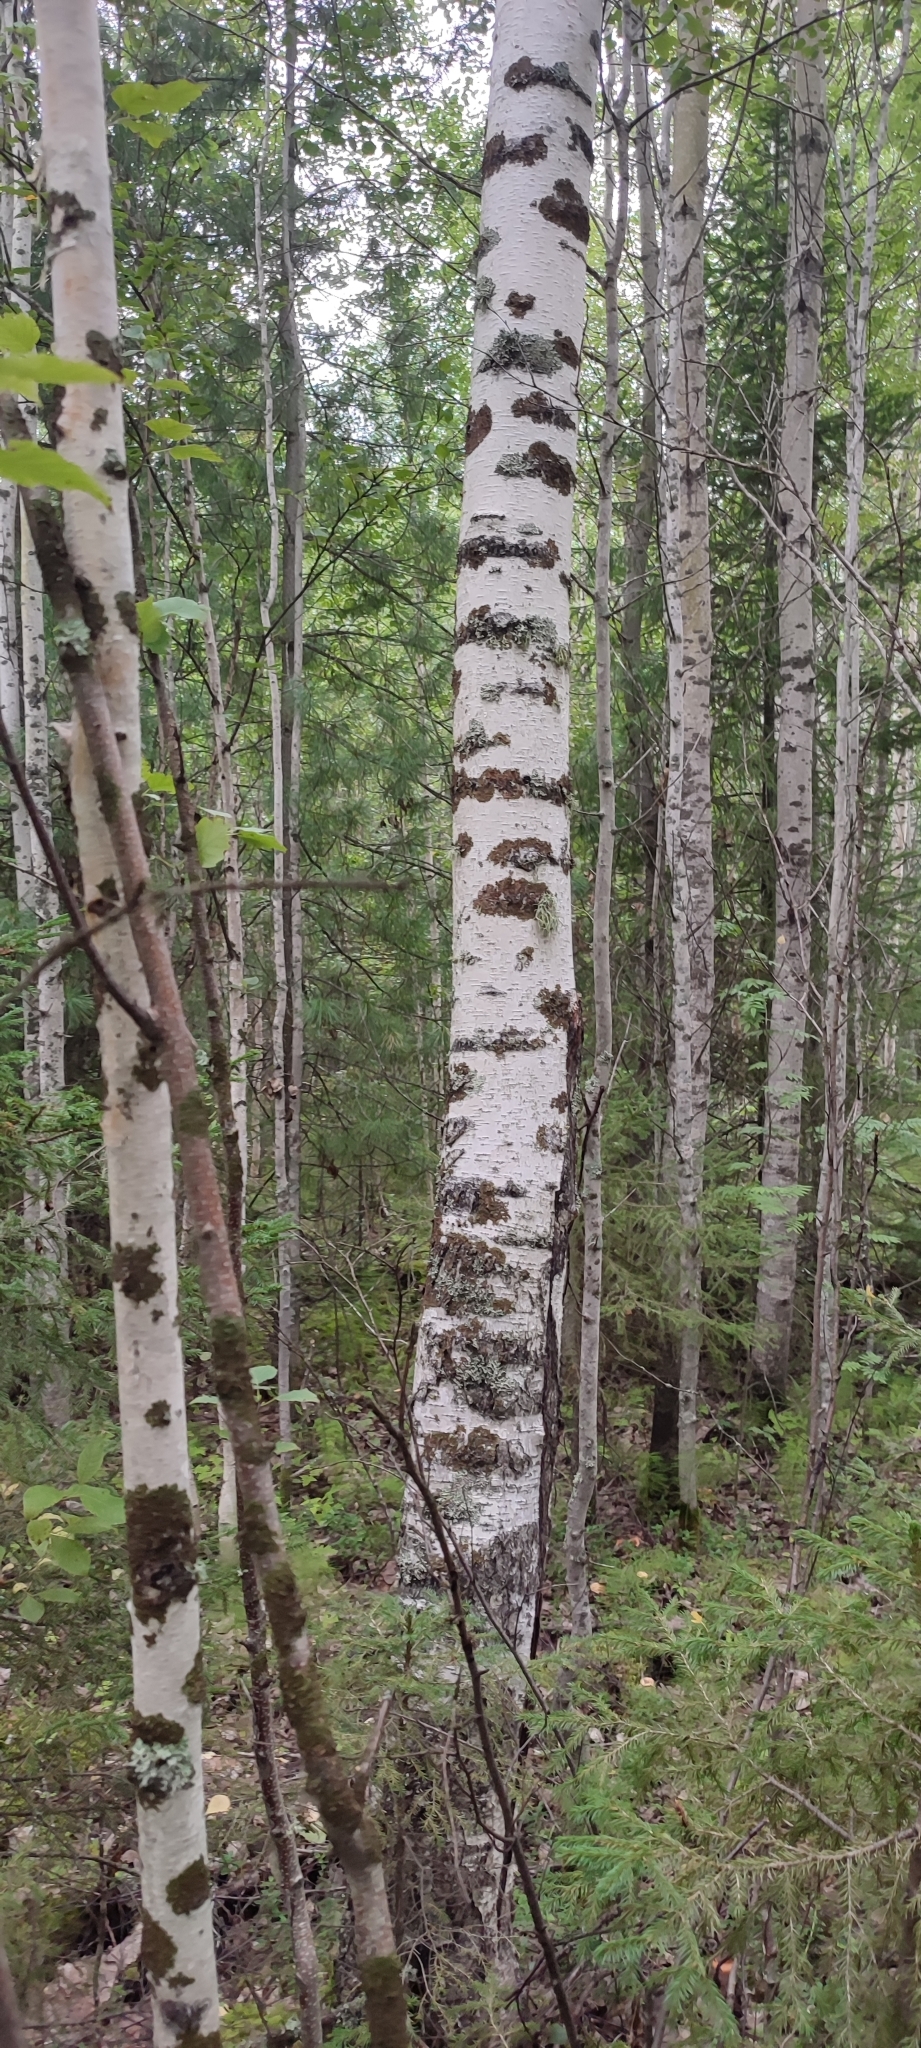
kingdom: Plantae
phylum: Tracheophyta
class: Magnoliopsida
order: Fagales
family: Betulaceae
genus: Betula
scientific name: Betula pubescens
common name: Downy birch
